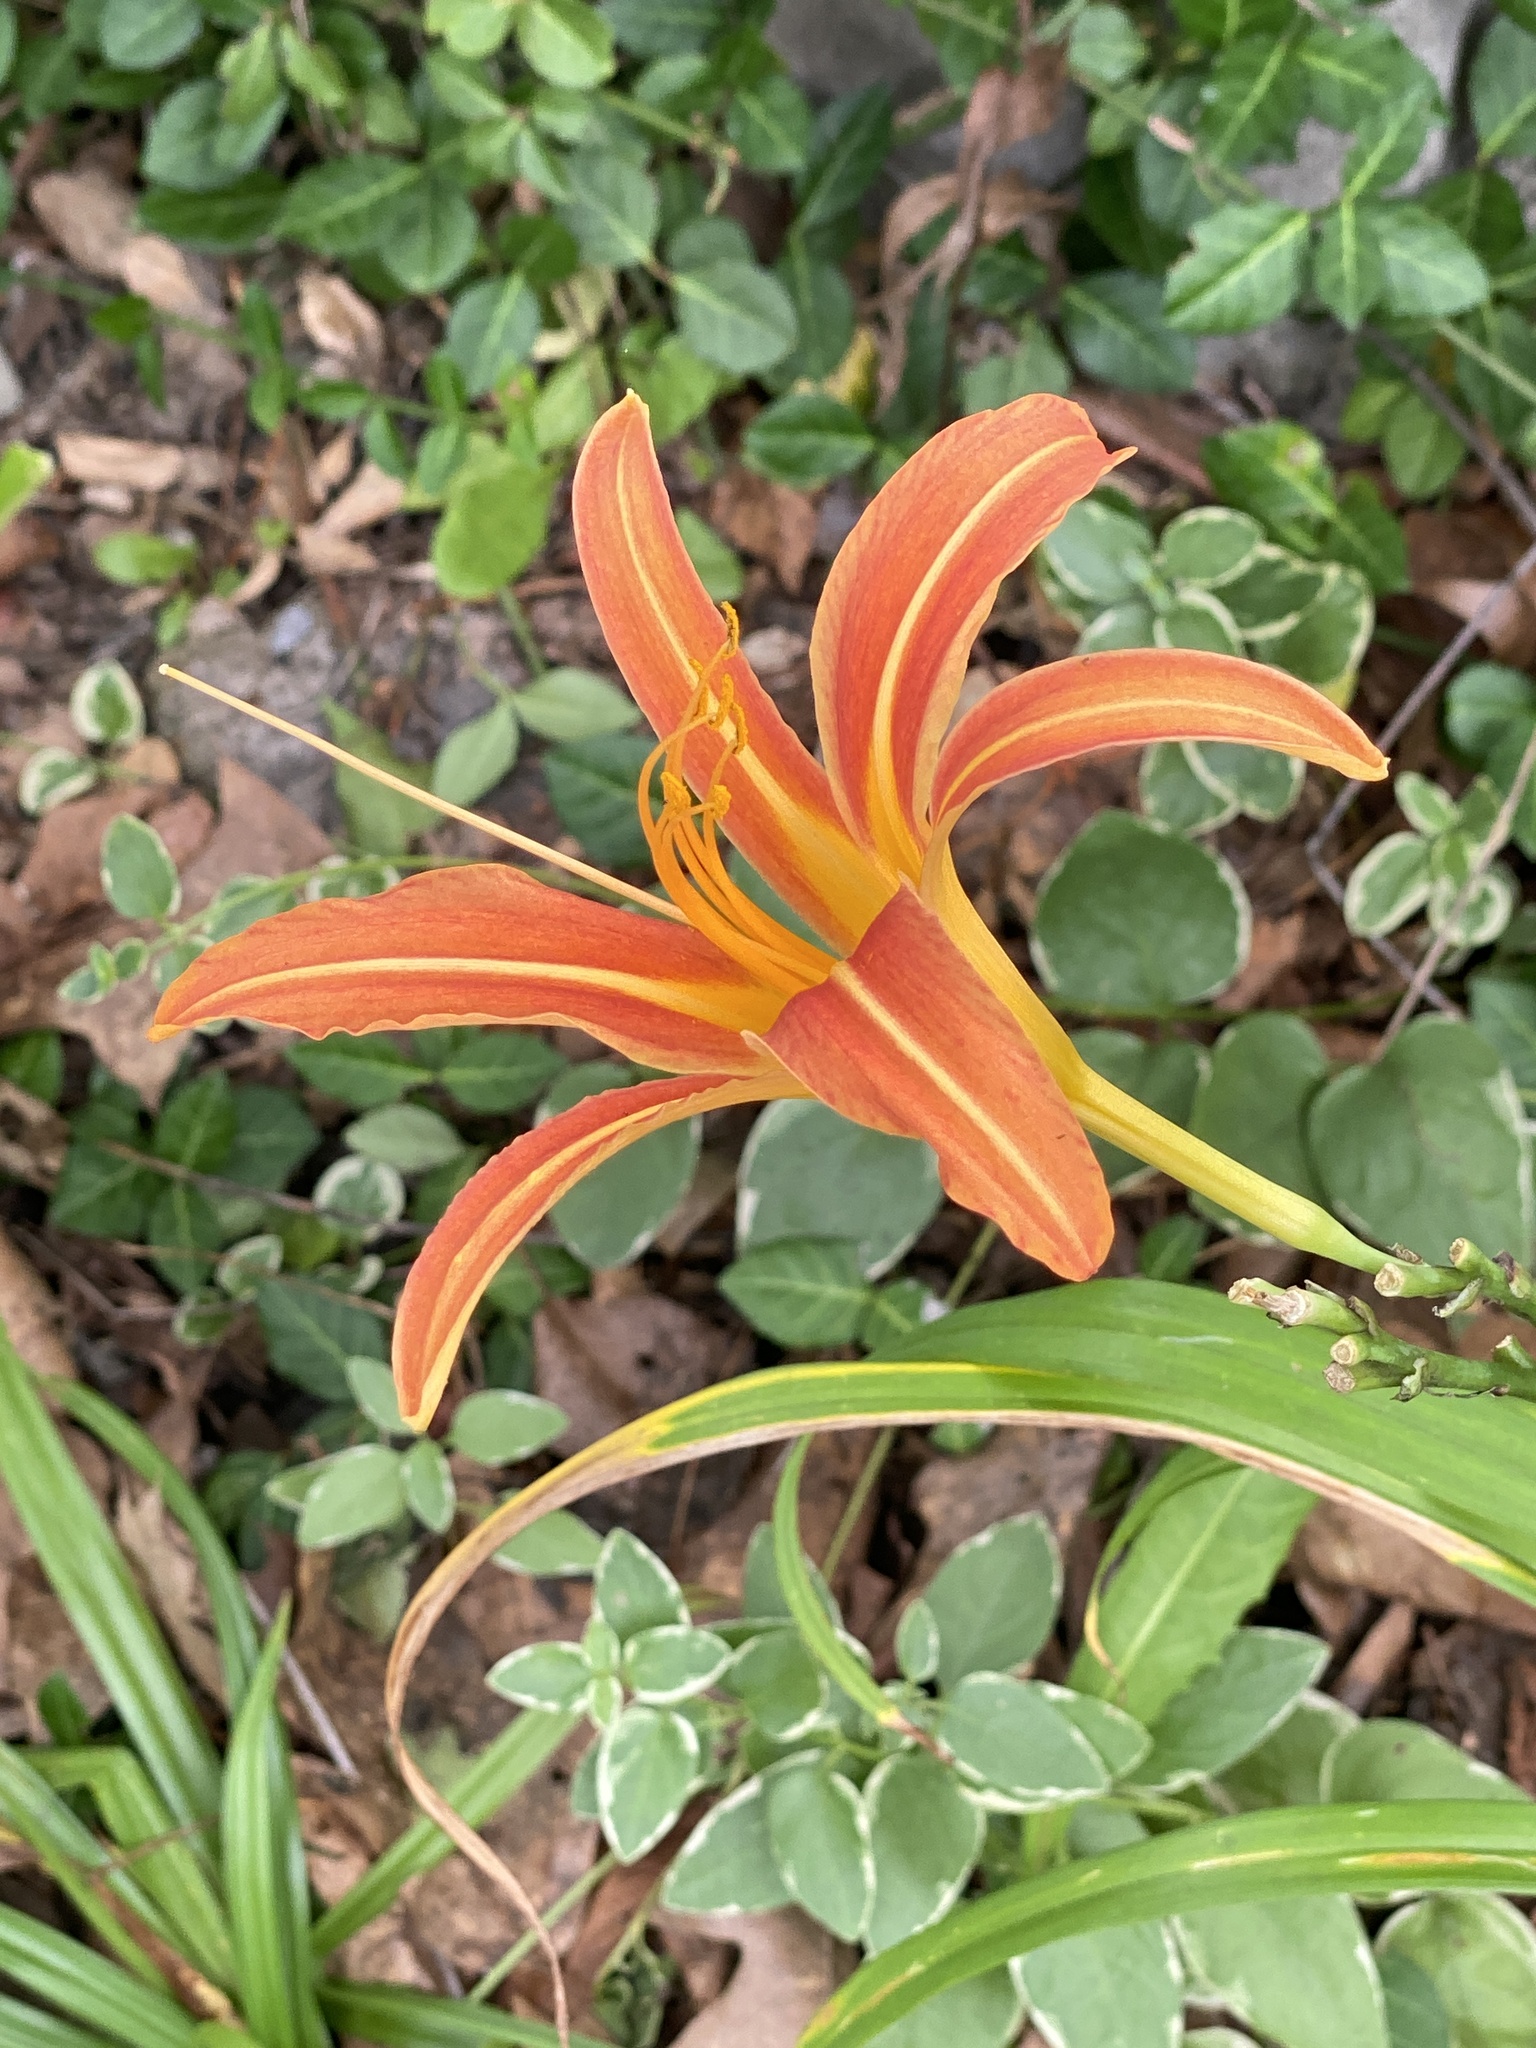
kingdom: Plantae
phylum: Tracheophyta
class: Liliopsida
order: Asparagales
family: Asphodelaceae
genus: Hemerocallis
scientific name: Hemerocallis fulva
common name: Orange day-lily
